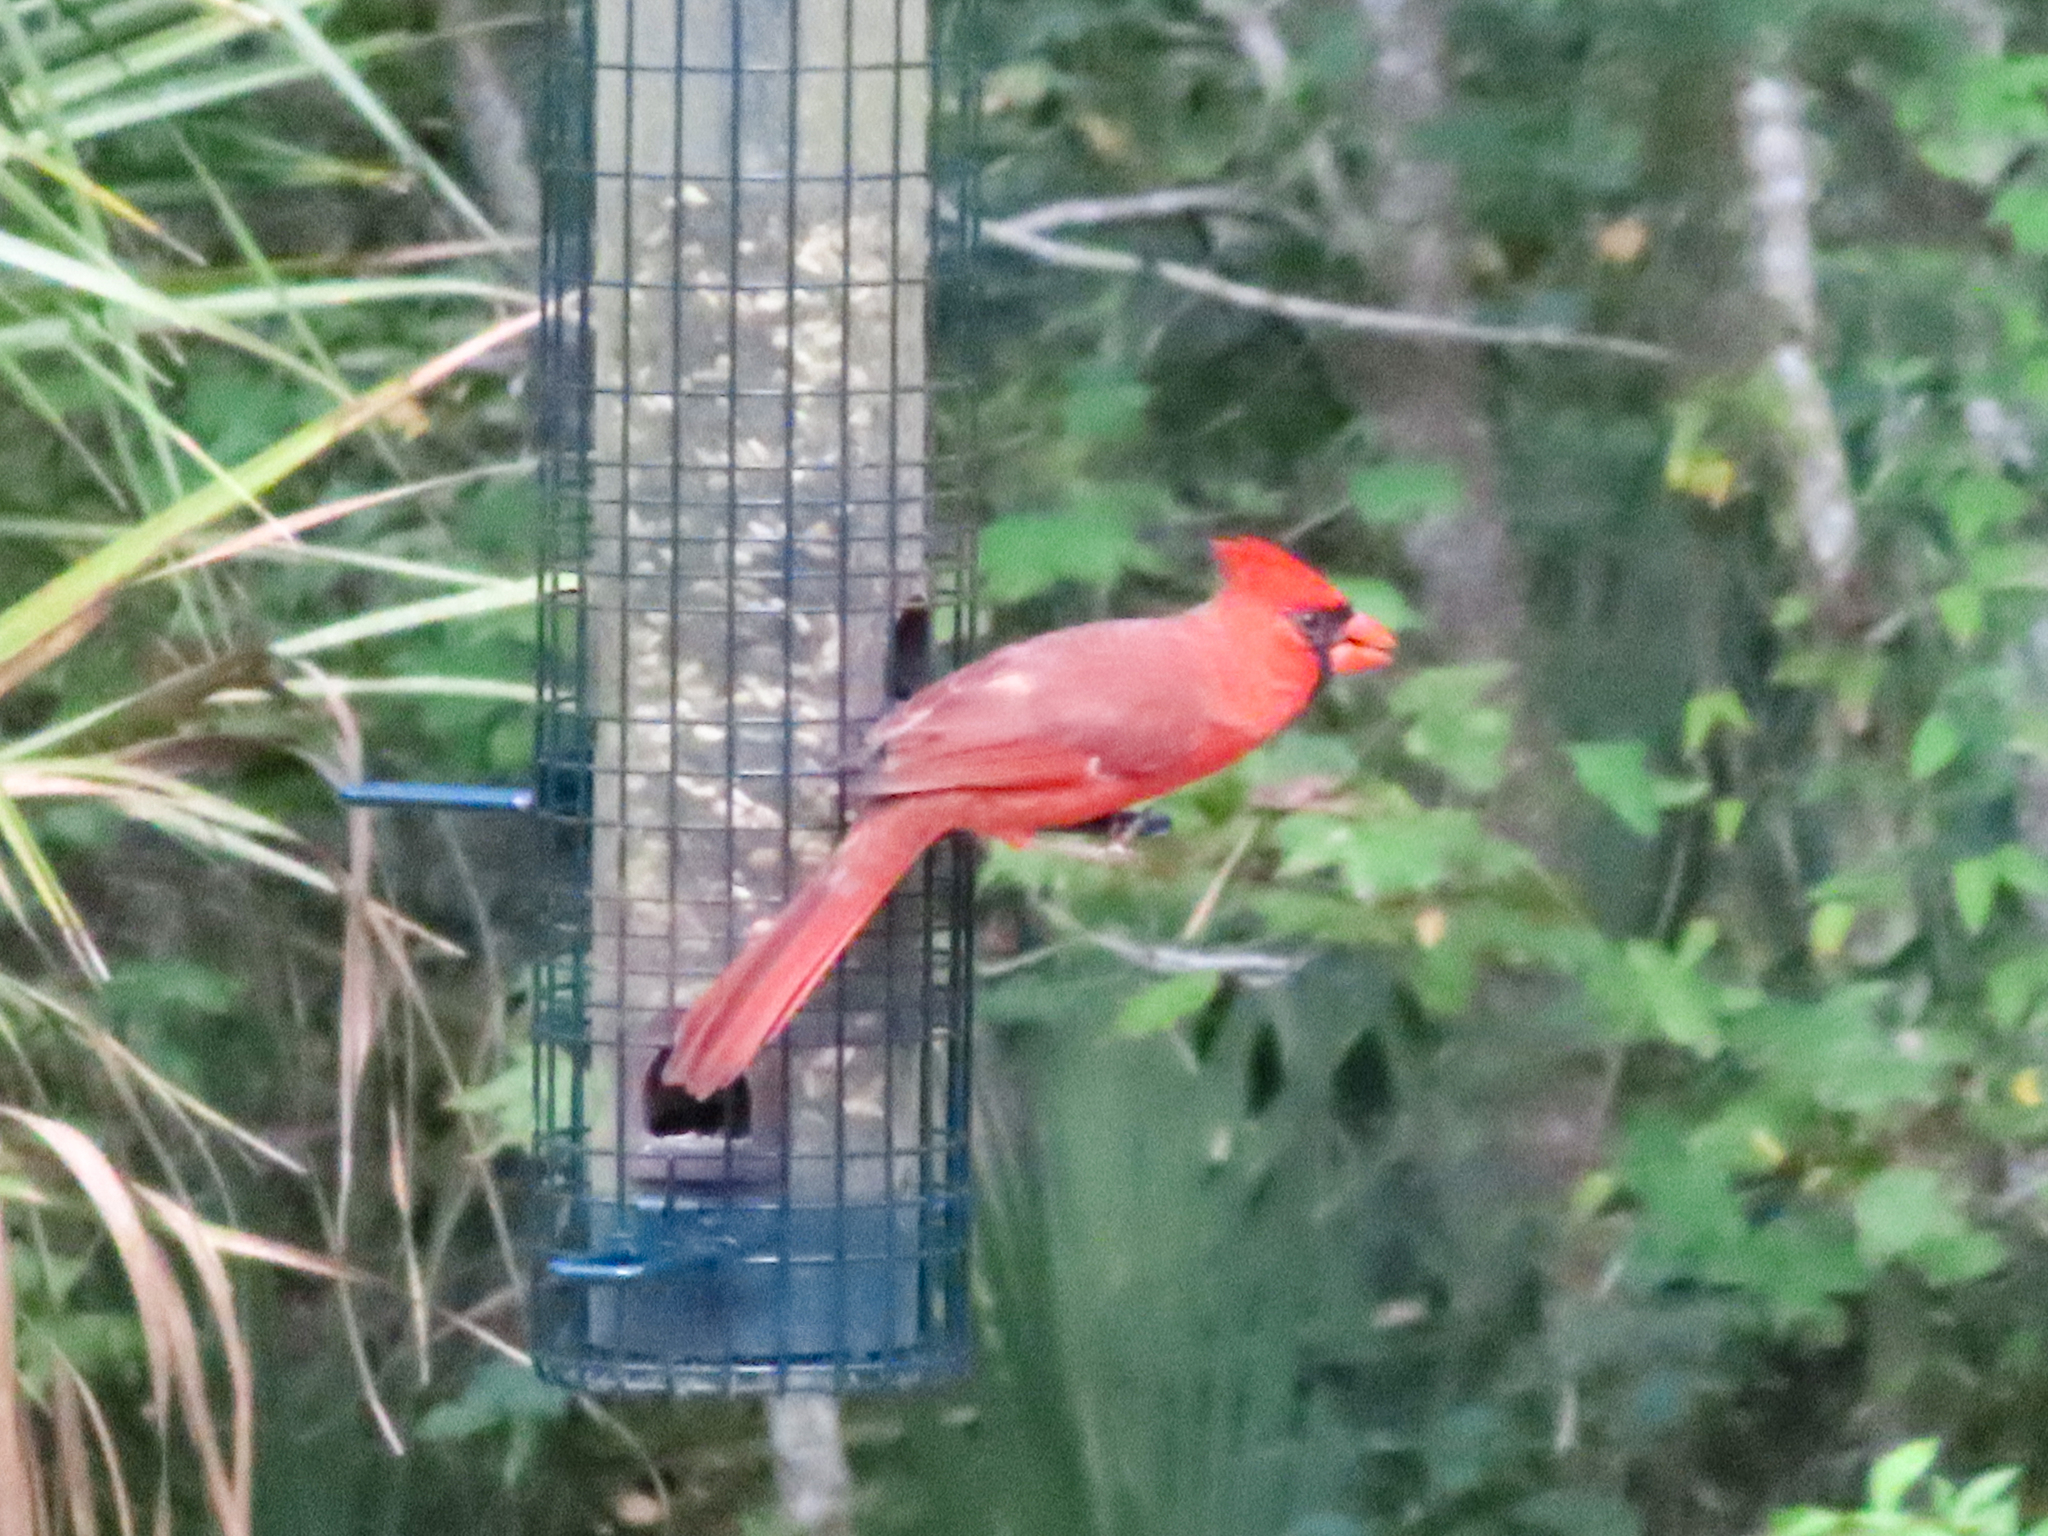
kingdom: Animalia
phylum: Chordata
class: Aves
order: Passeriformes
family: Cardinalidae
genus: Cardinalis
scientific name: Cardinalis cardinalis
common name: Northern cardinal
